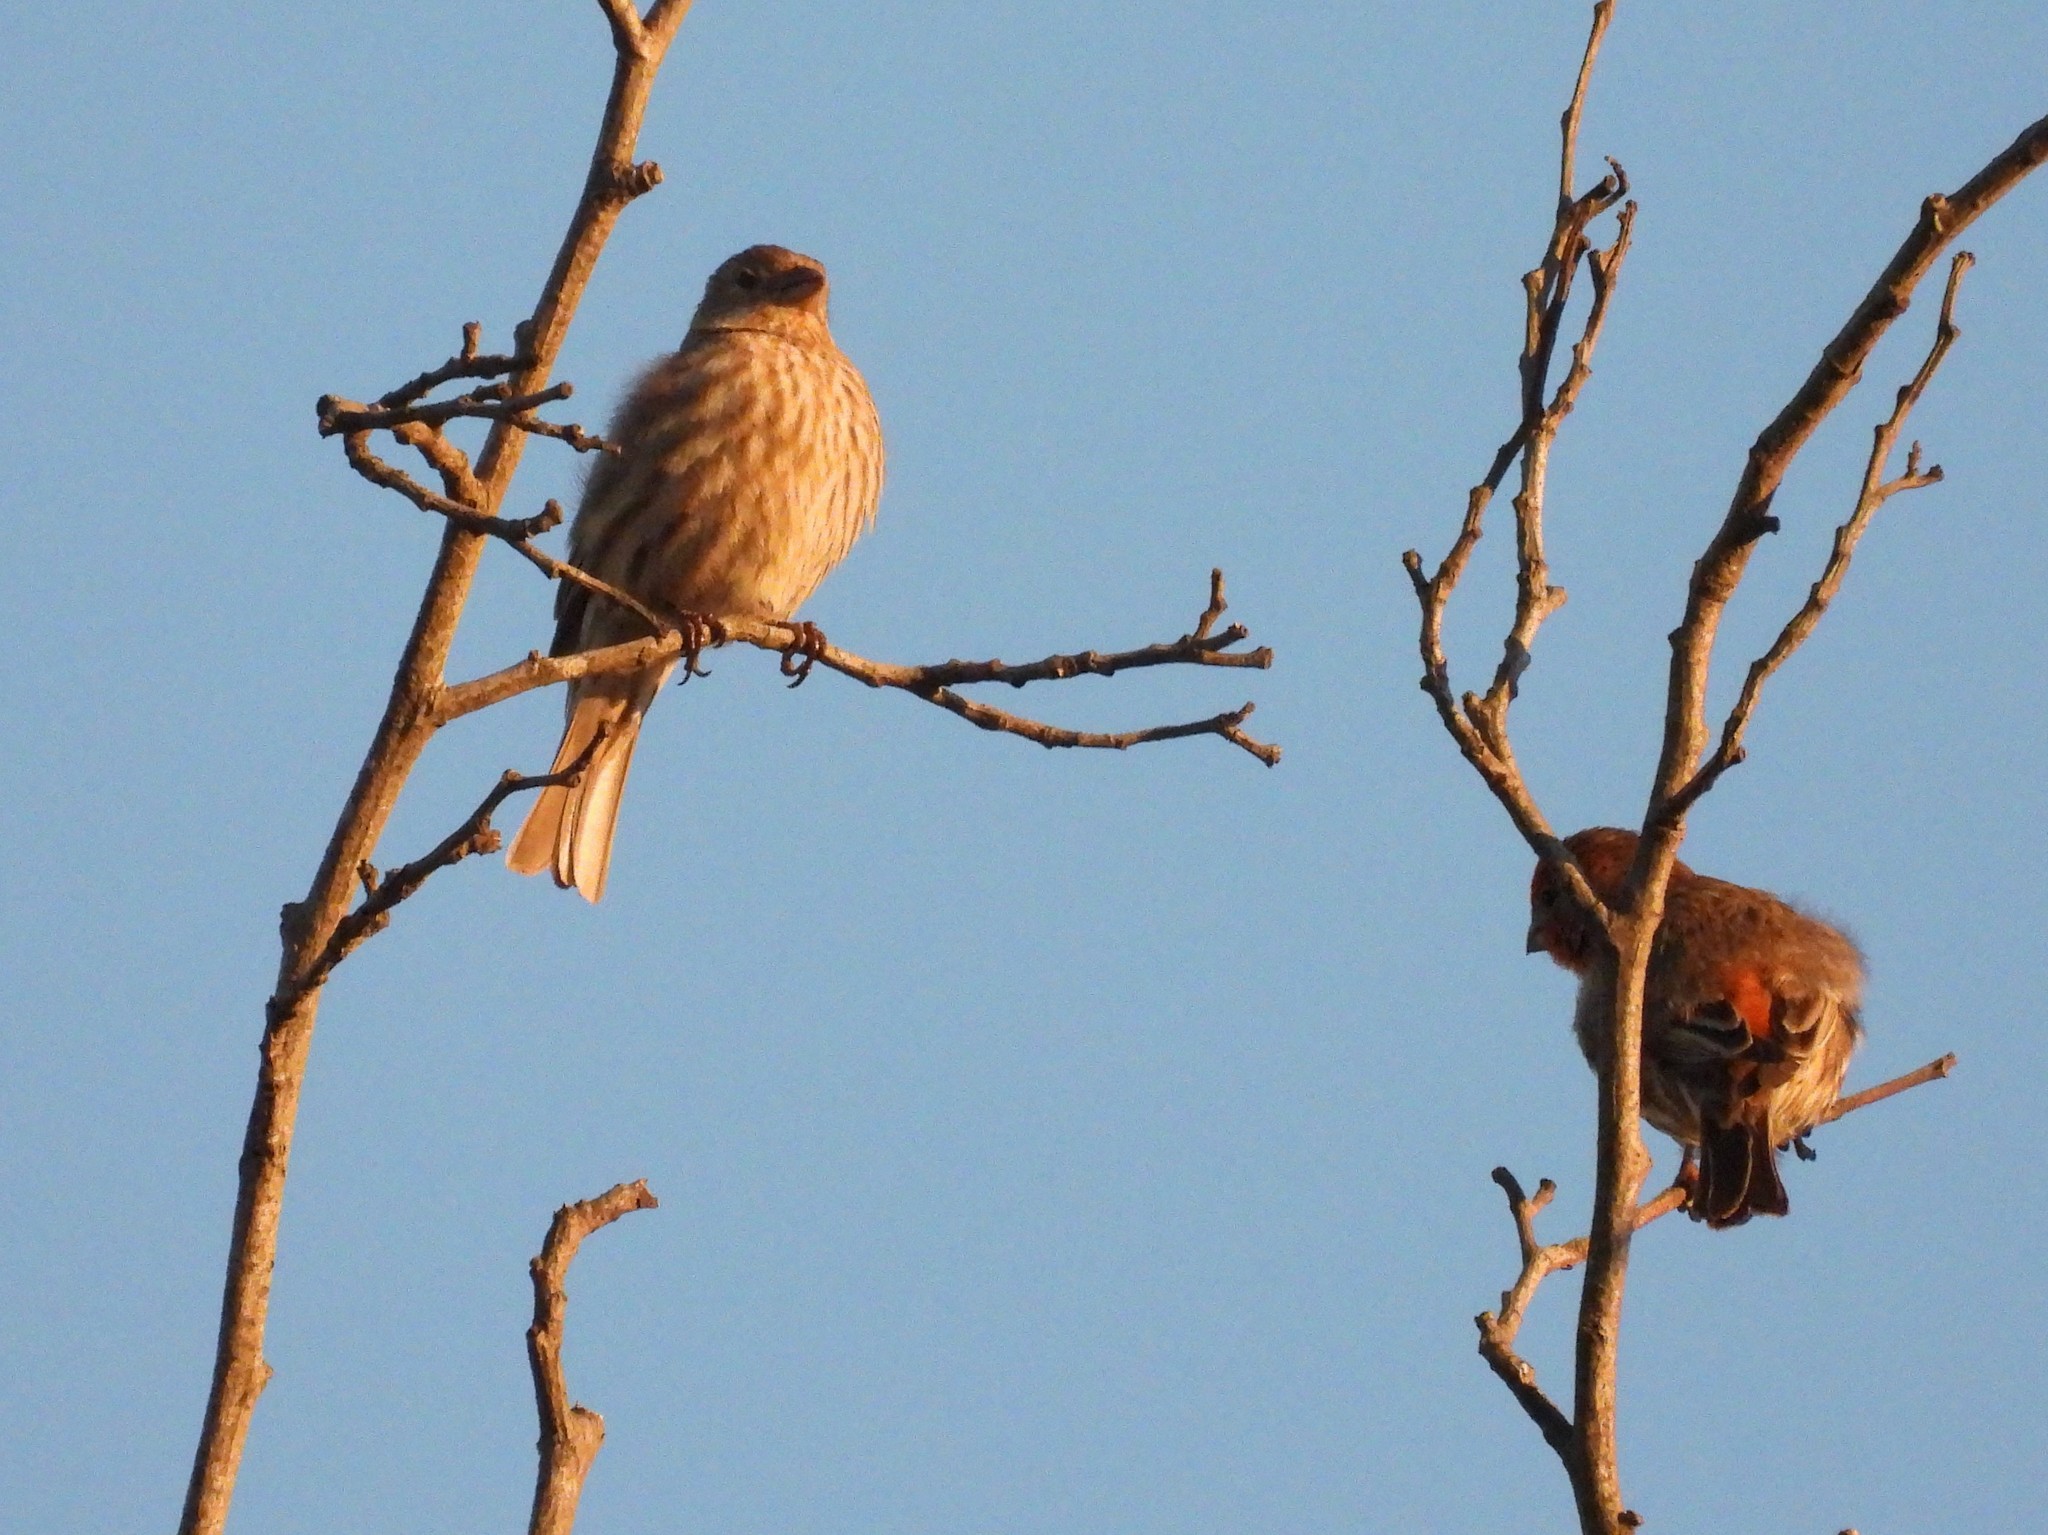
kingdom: Animalia
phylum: Chordata
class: Aves
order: Passeriformes
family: Fringillidae
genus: Haemorhous
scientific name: Haemorhous mexicanus
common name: House finch
